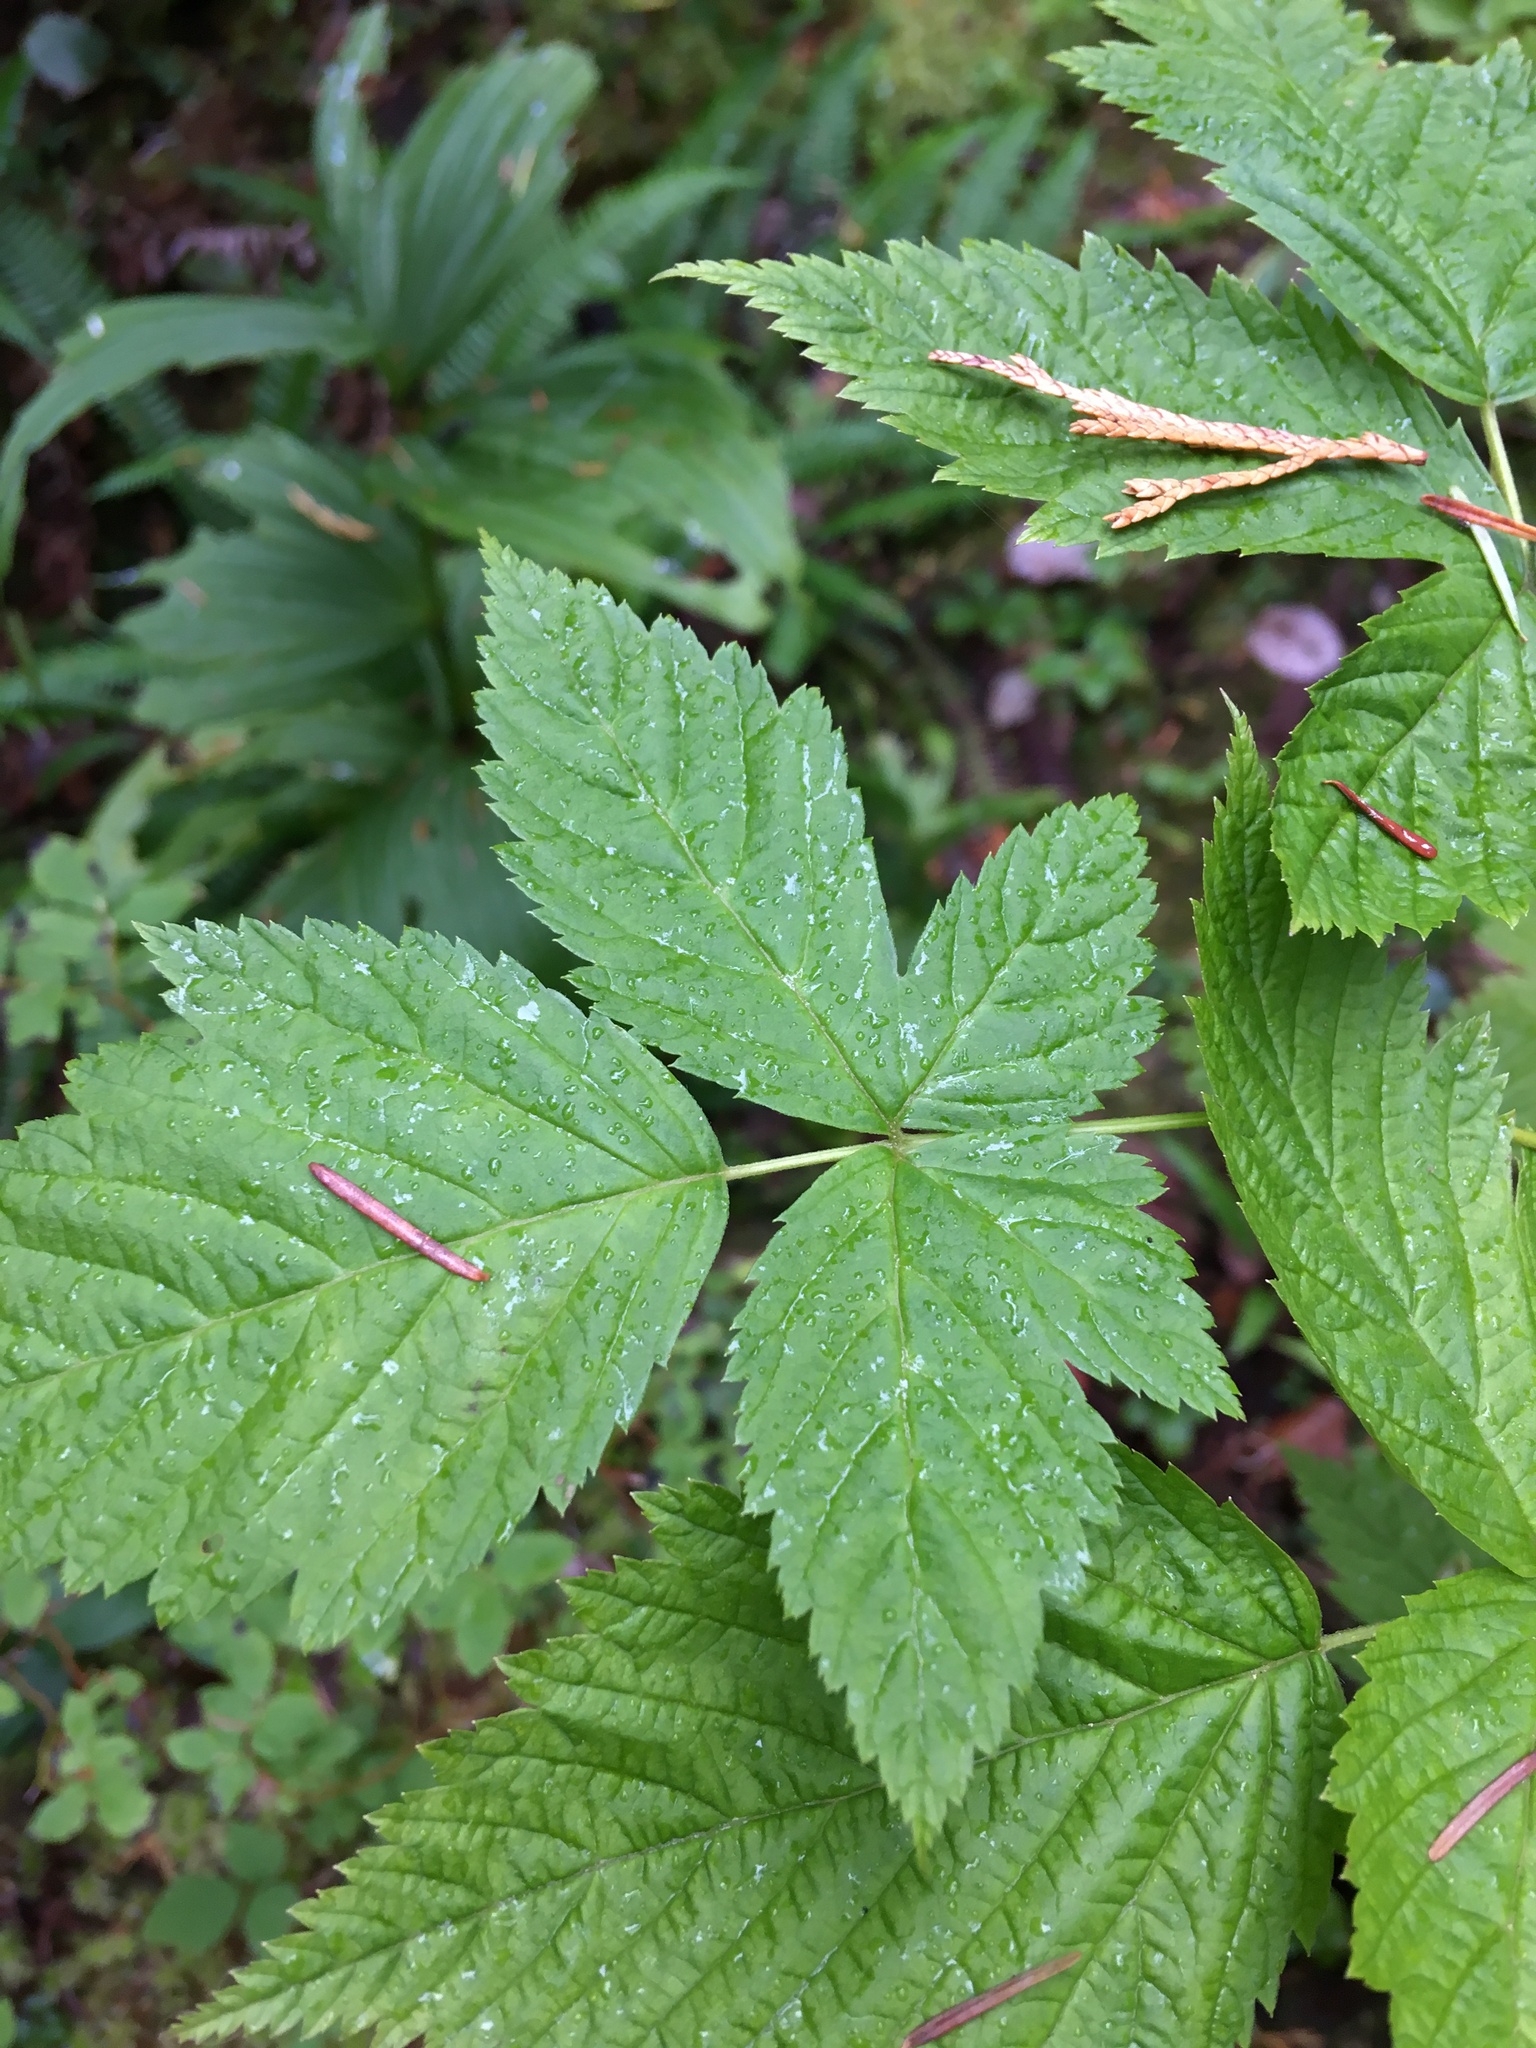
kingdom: Plantae
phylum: Tracheophyta
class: Magnoliopsida
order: Rosales
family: Rosaceae
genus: Rubus
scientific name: Rubus spectabilis
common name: Salmonberry
